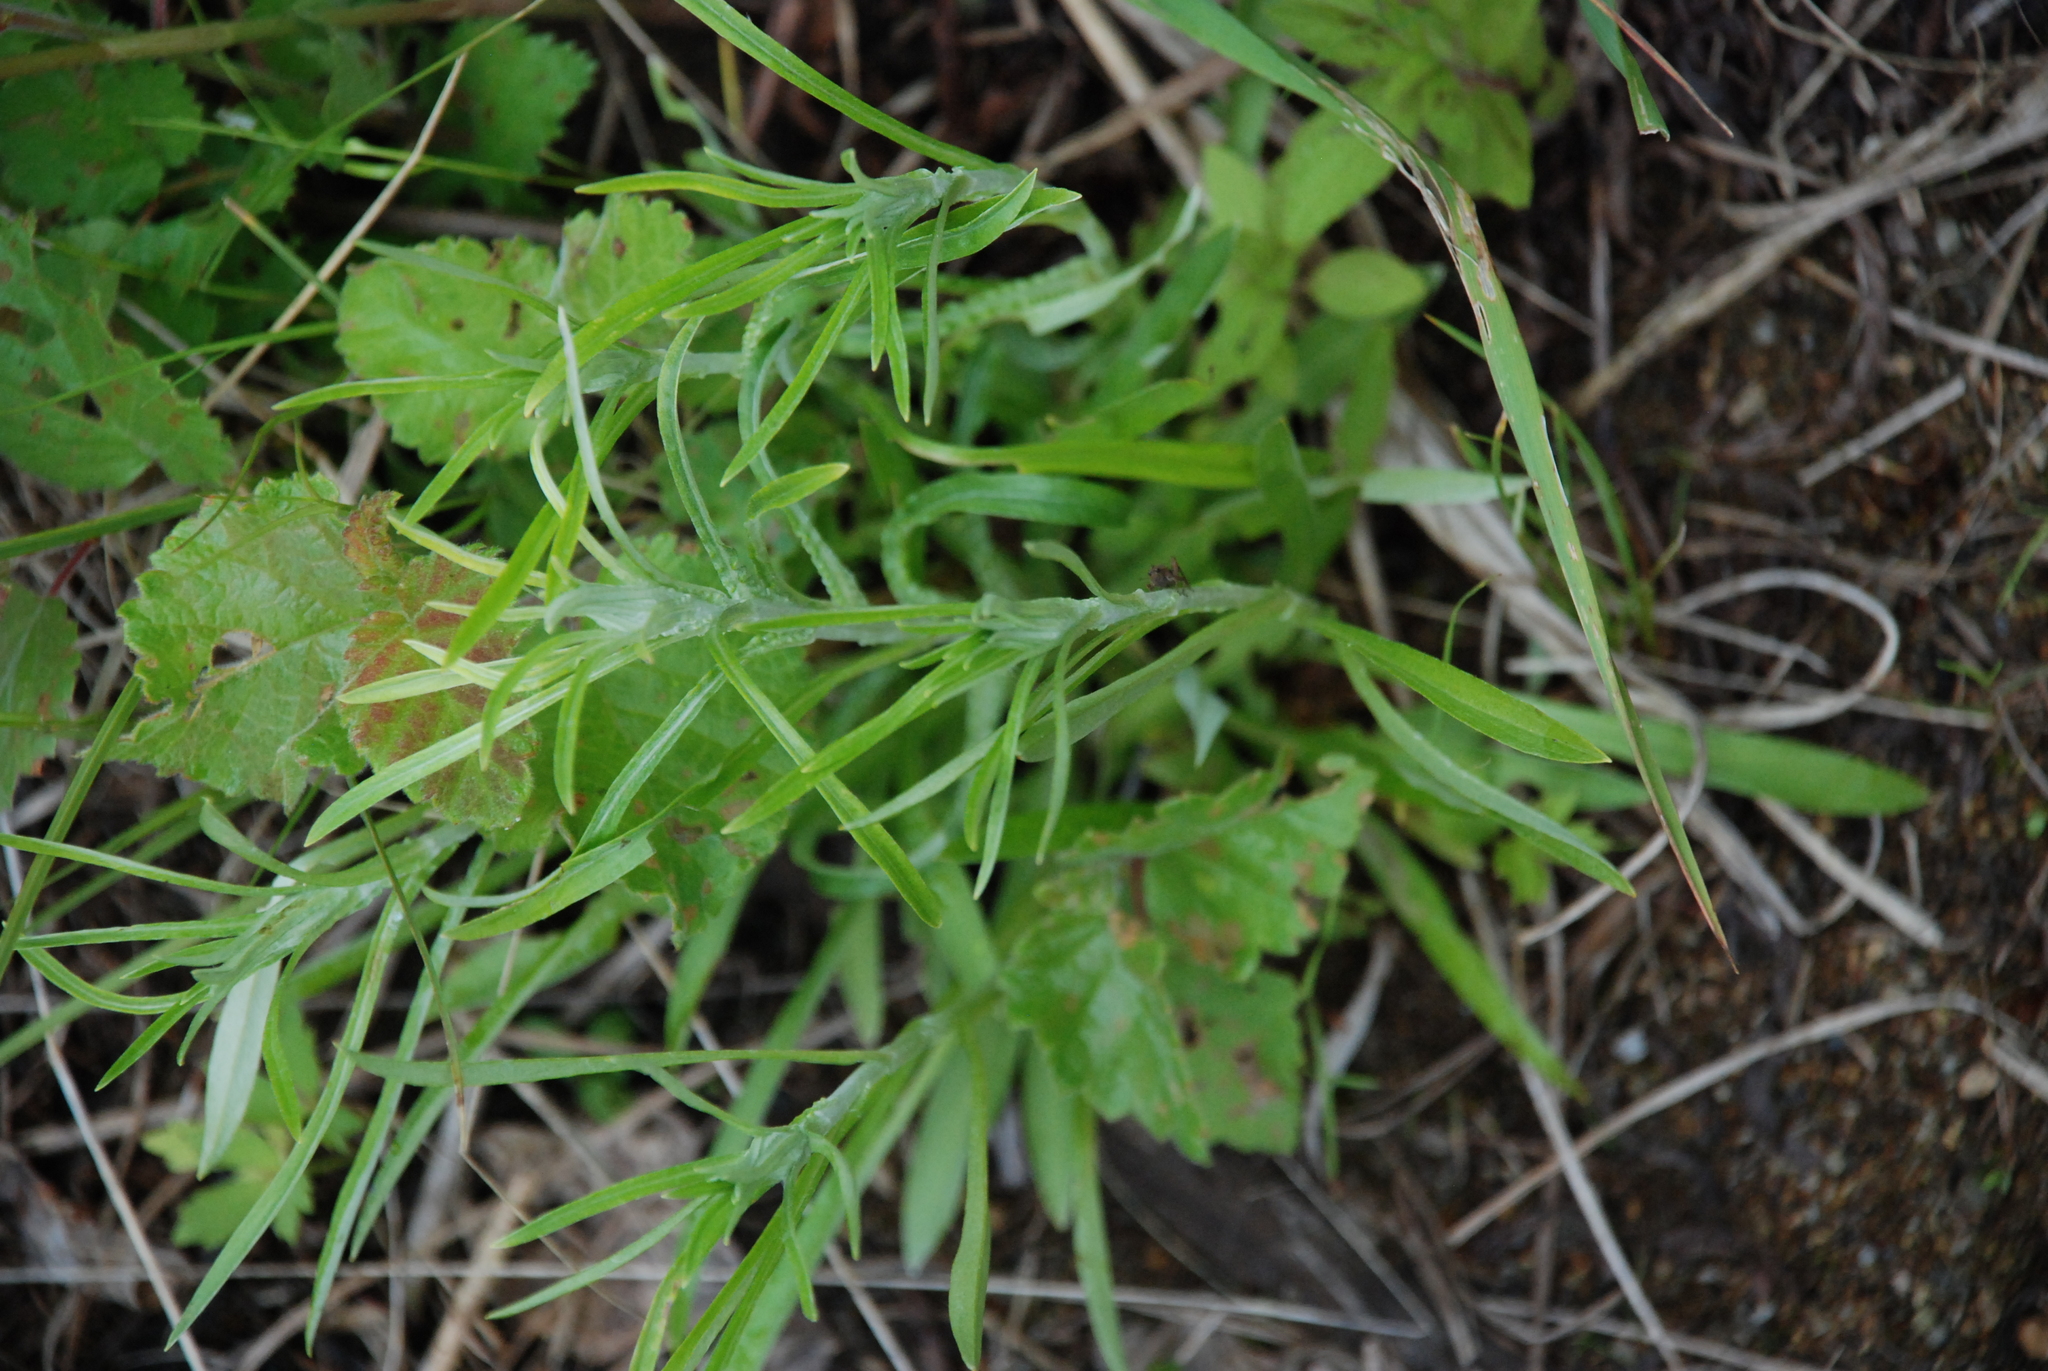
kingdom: Plantae
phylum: Tracheophyta
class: Magnoliopsida
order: Asterales
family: Asteraceae
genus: Omalotheca
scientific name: Omalotheca sylvatica
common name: Heath cudweed
